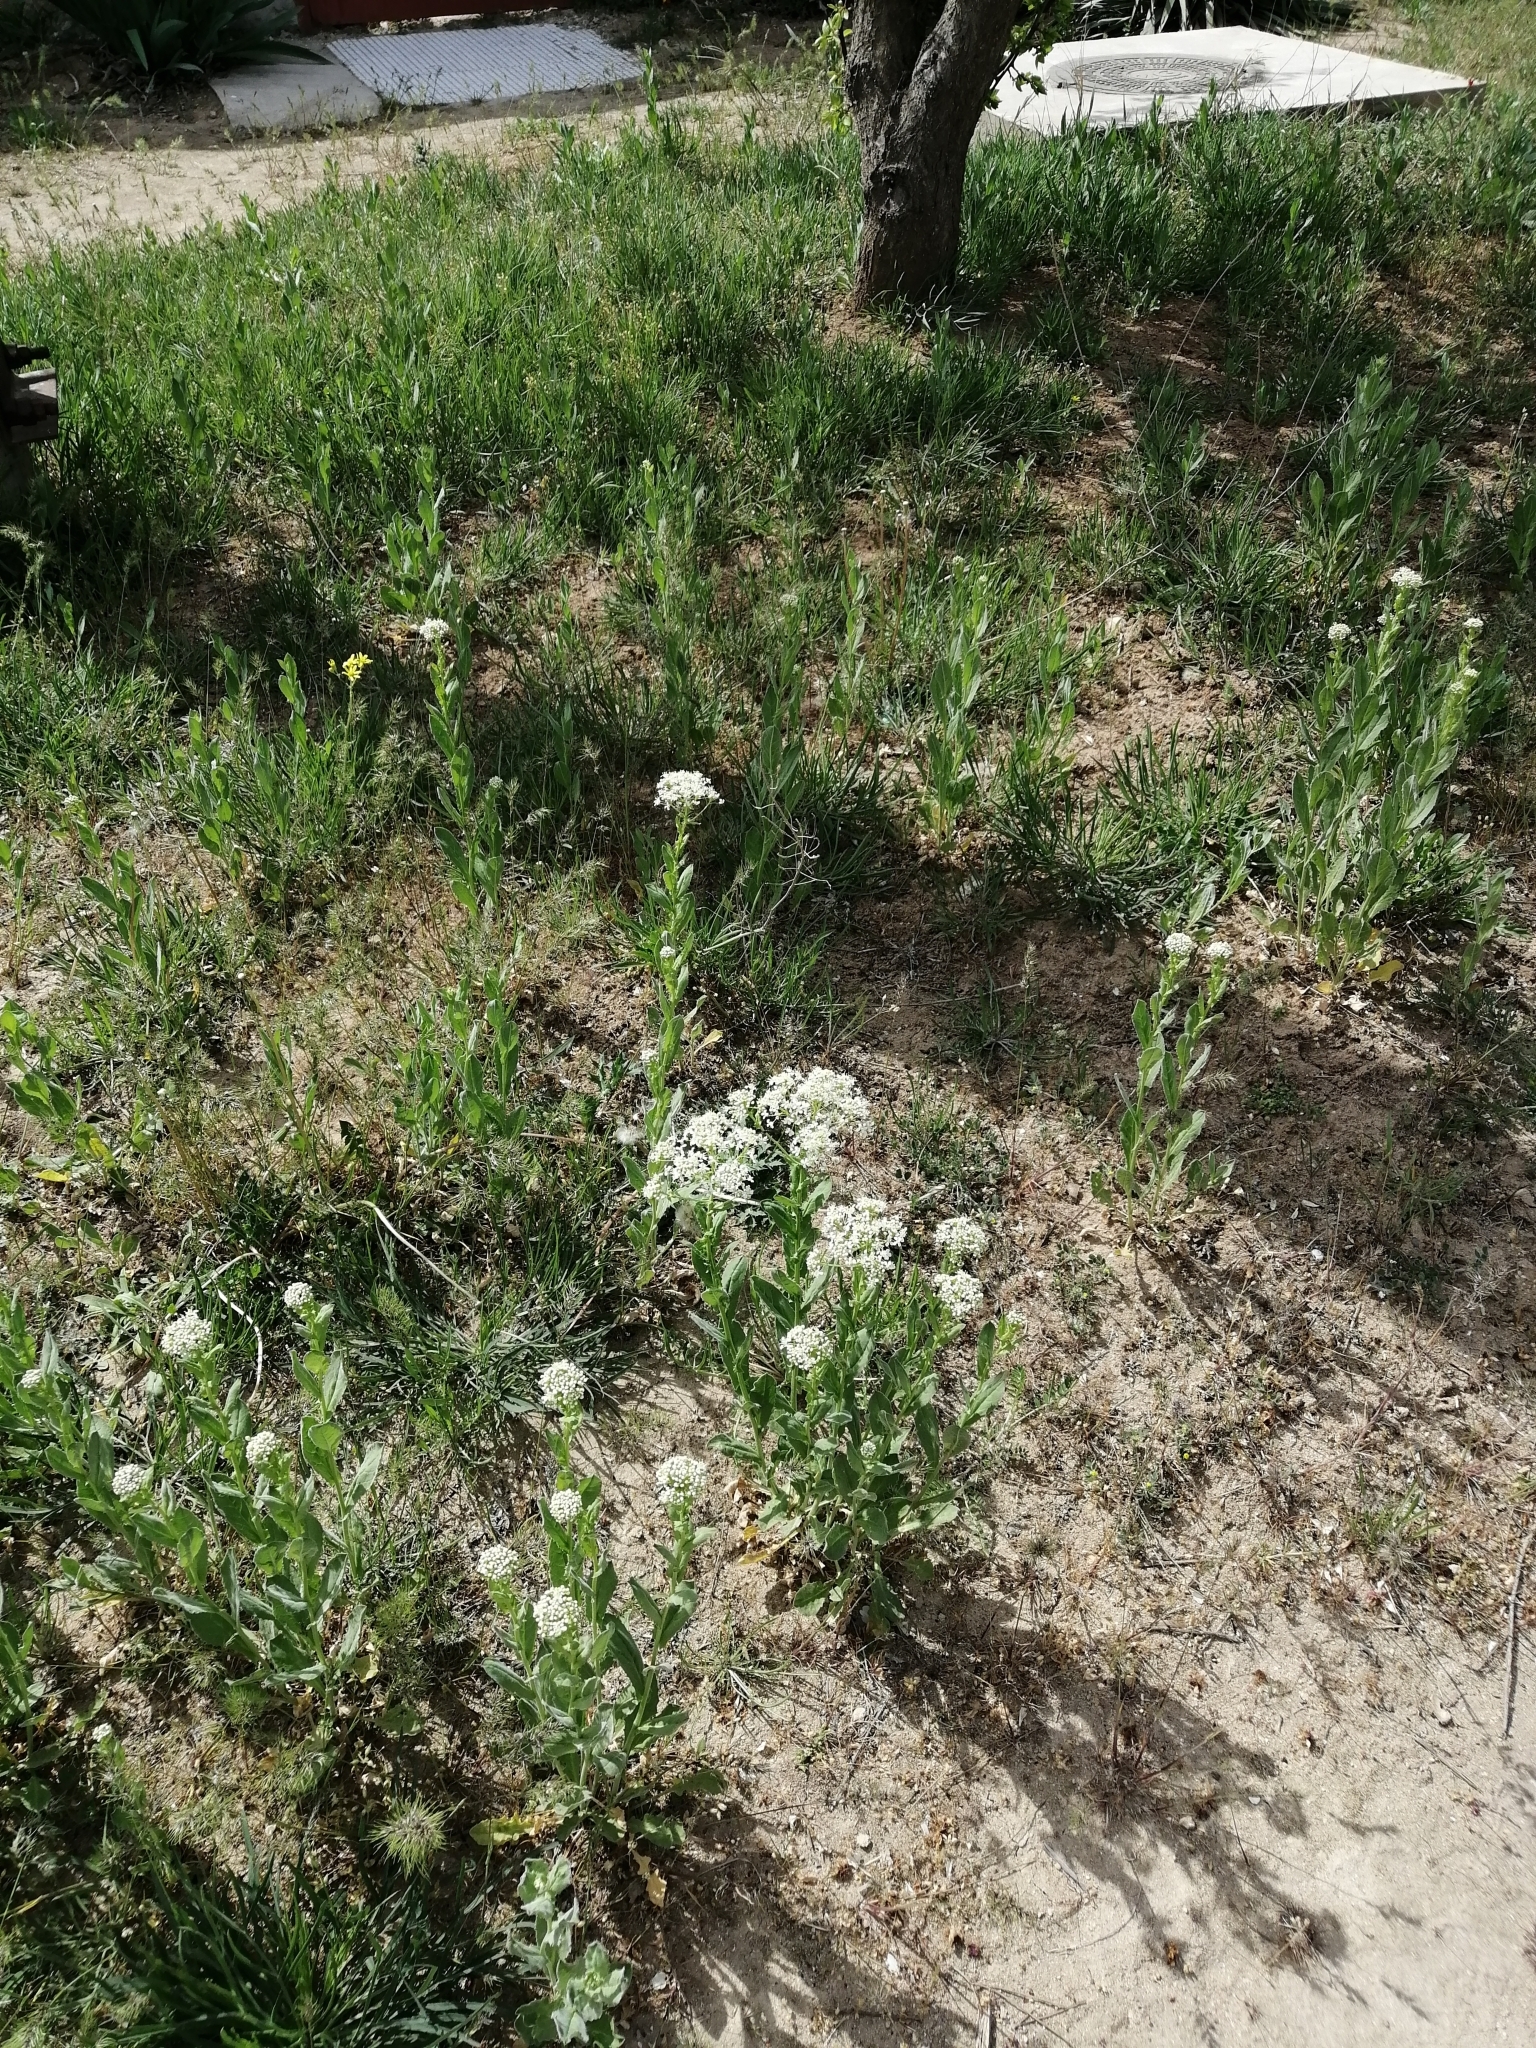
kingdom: Plantae
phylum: Tracheophyta
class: Magnoliopsida
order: Brassicales
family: Brassicaceae
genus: Lepidium
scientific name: Lepidium draba
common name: Hoary cress
